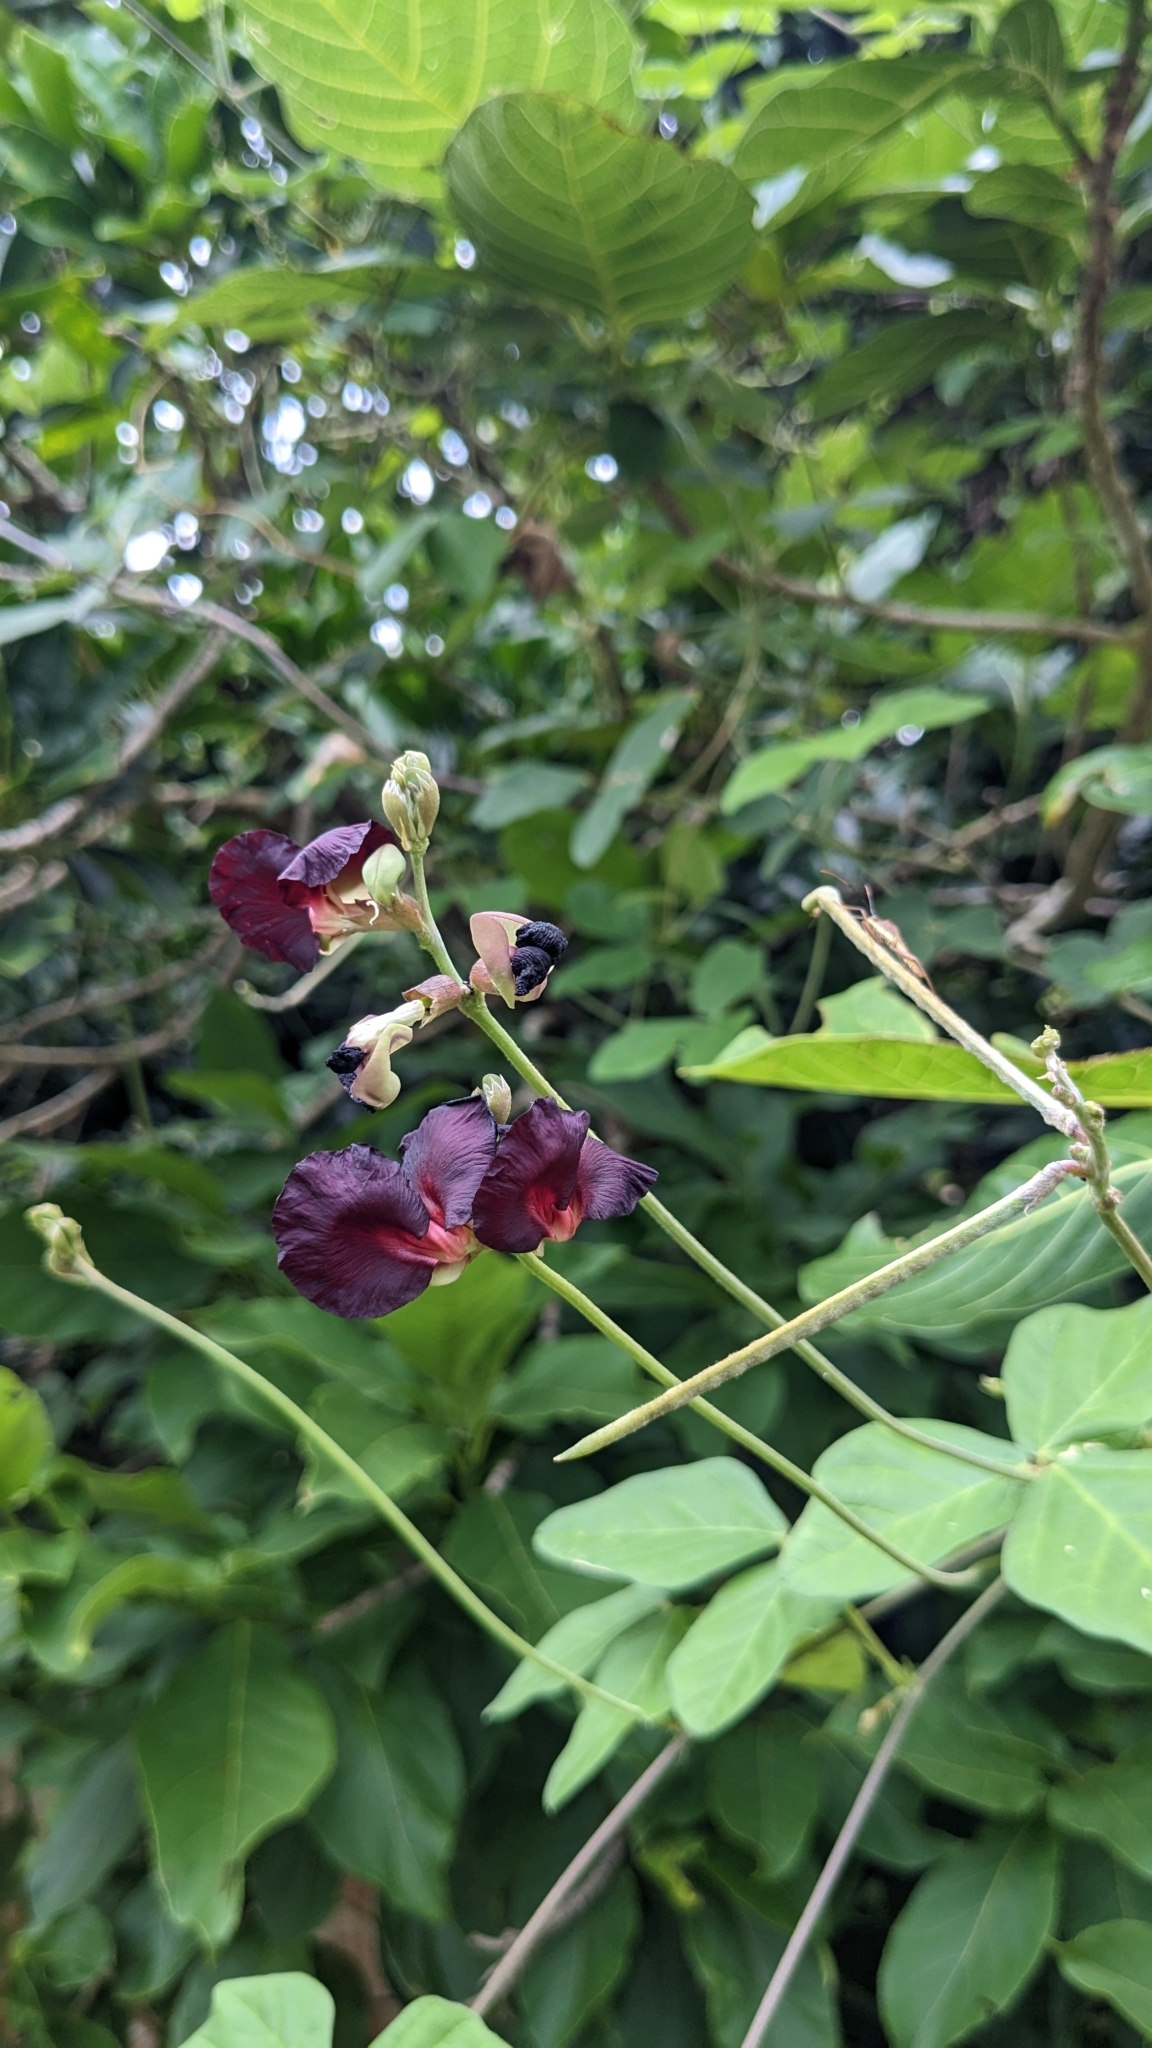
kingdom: Plantae
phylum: Tracheophyta
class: Magnoliopsida
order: Fabales
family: Fabaceae
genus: Macroptilium
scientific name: Macroptilium atropurpureum
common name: Purple bushbean
